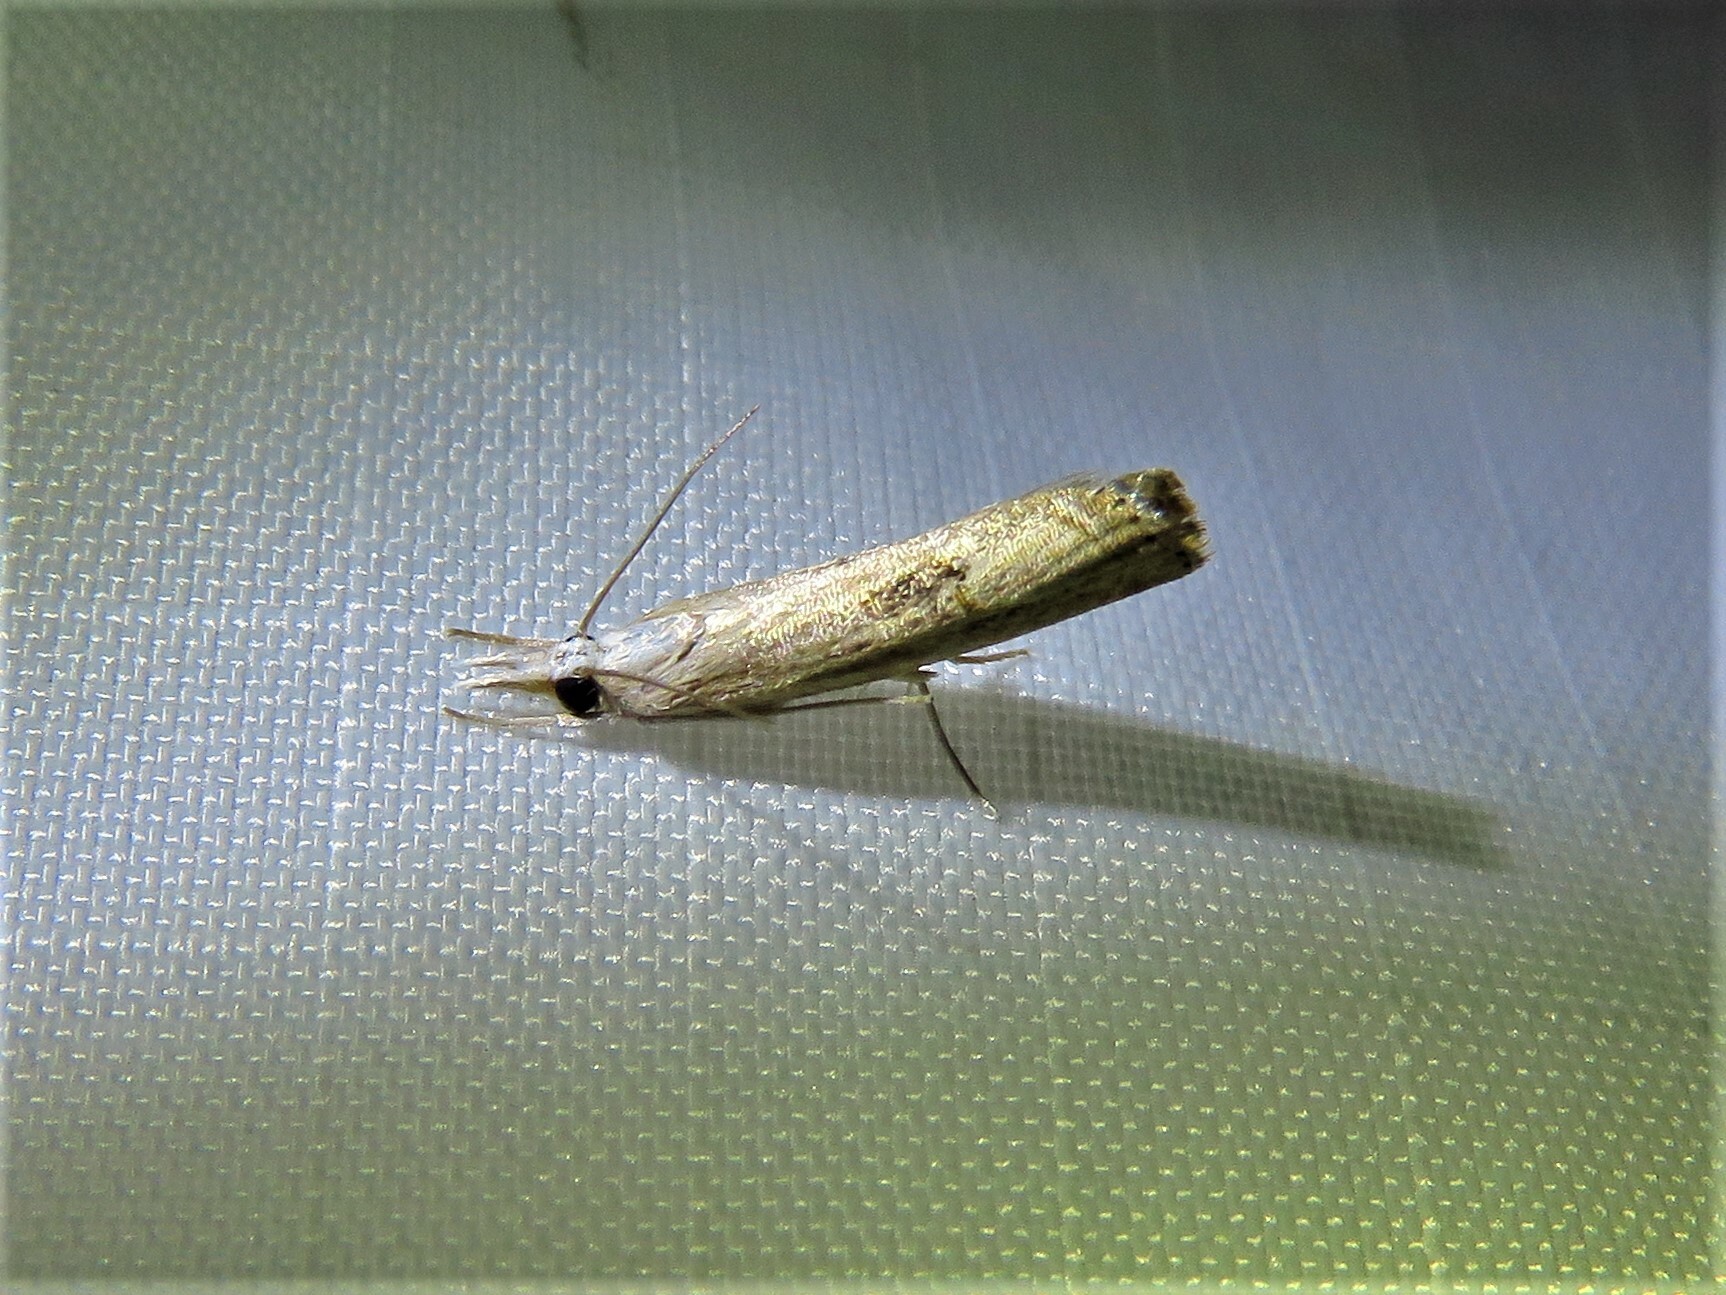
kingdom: Animalia
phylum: Arthropoda
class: Insecta
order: Lepidoptera
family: Crambidae
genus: Parapediasia
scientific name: Parapediasia teterellus
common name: Bluegrass webworm moth
